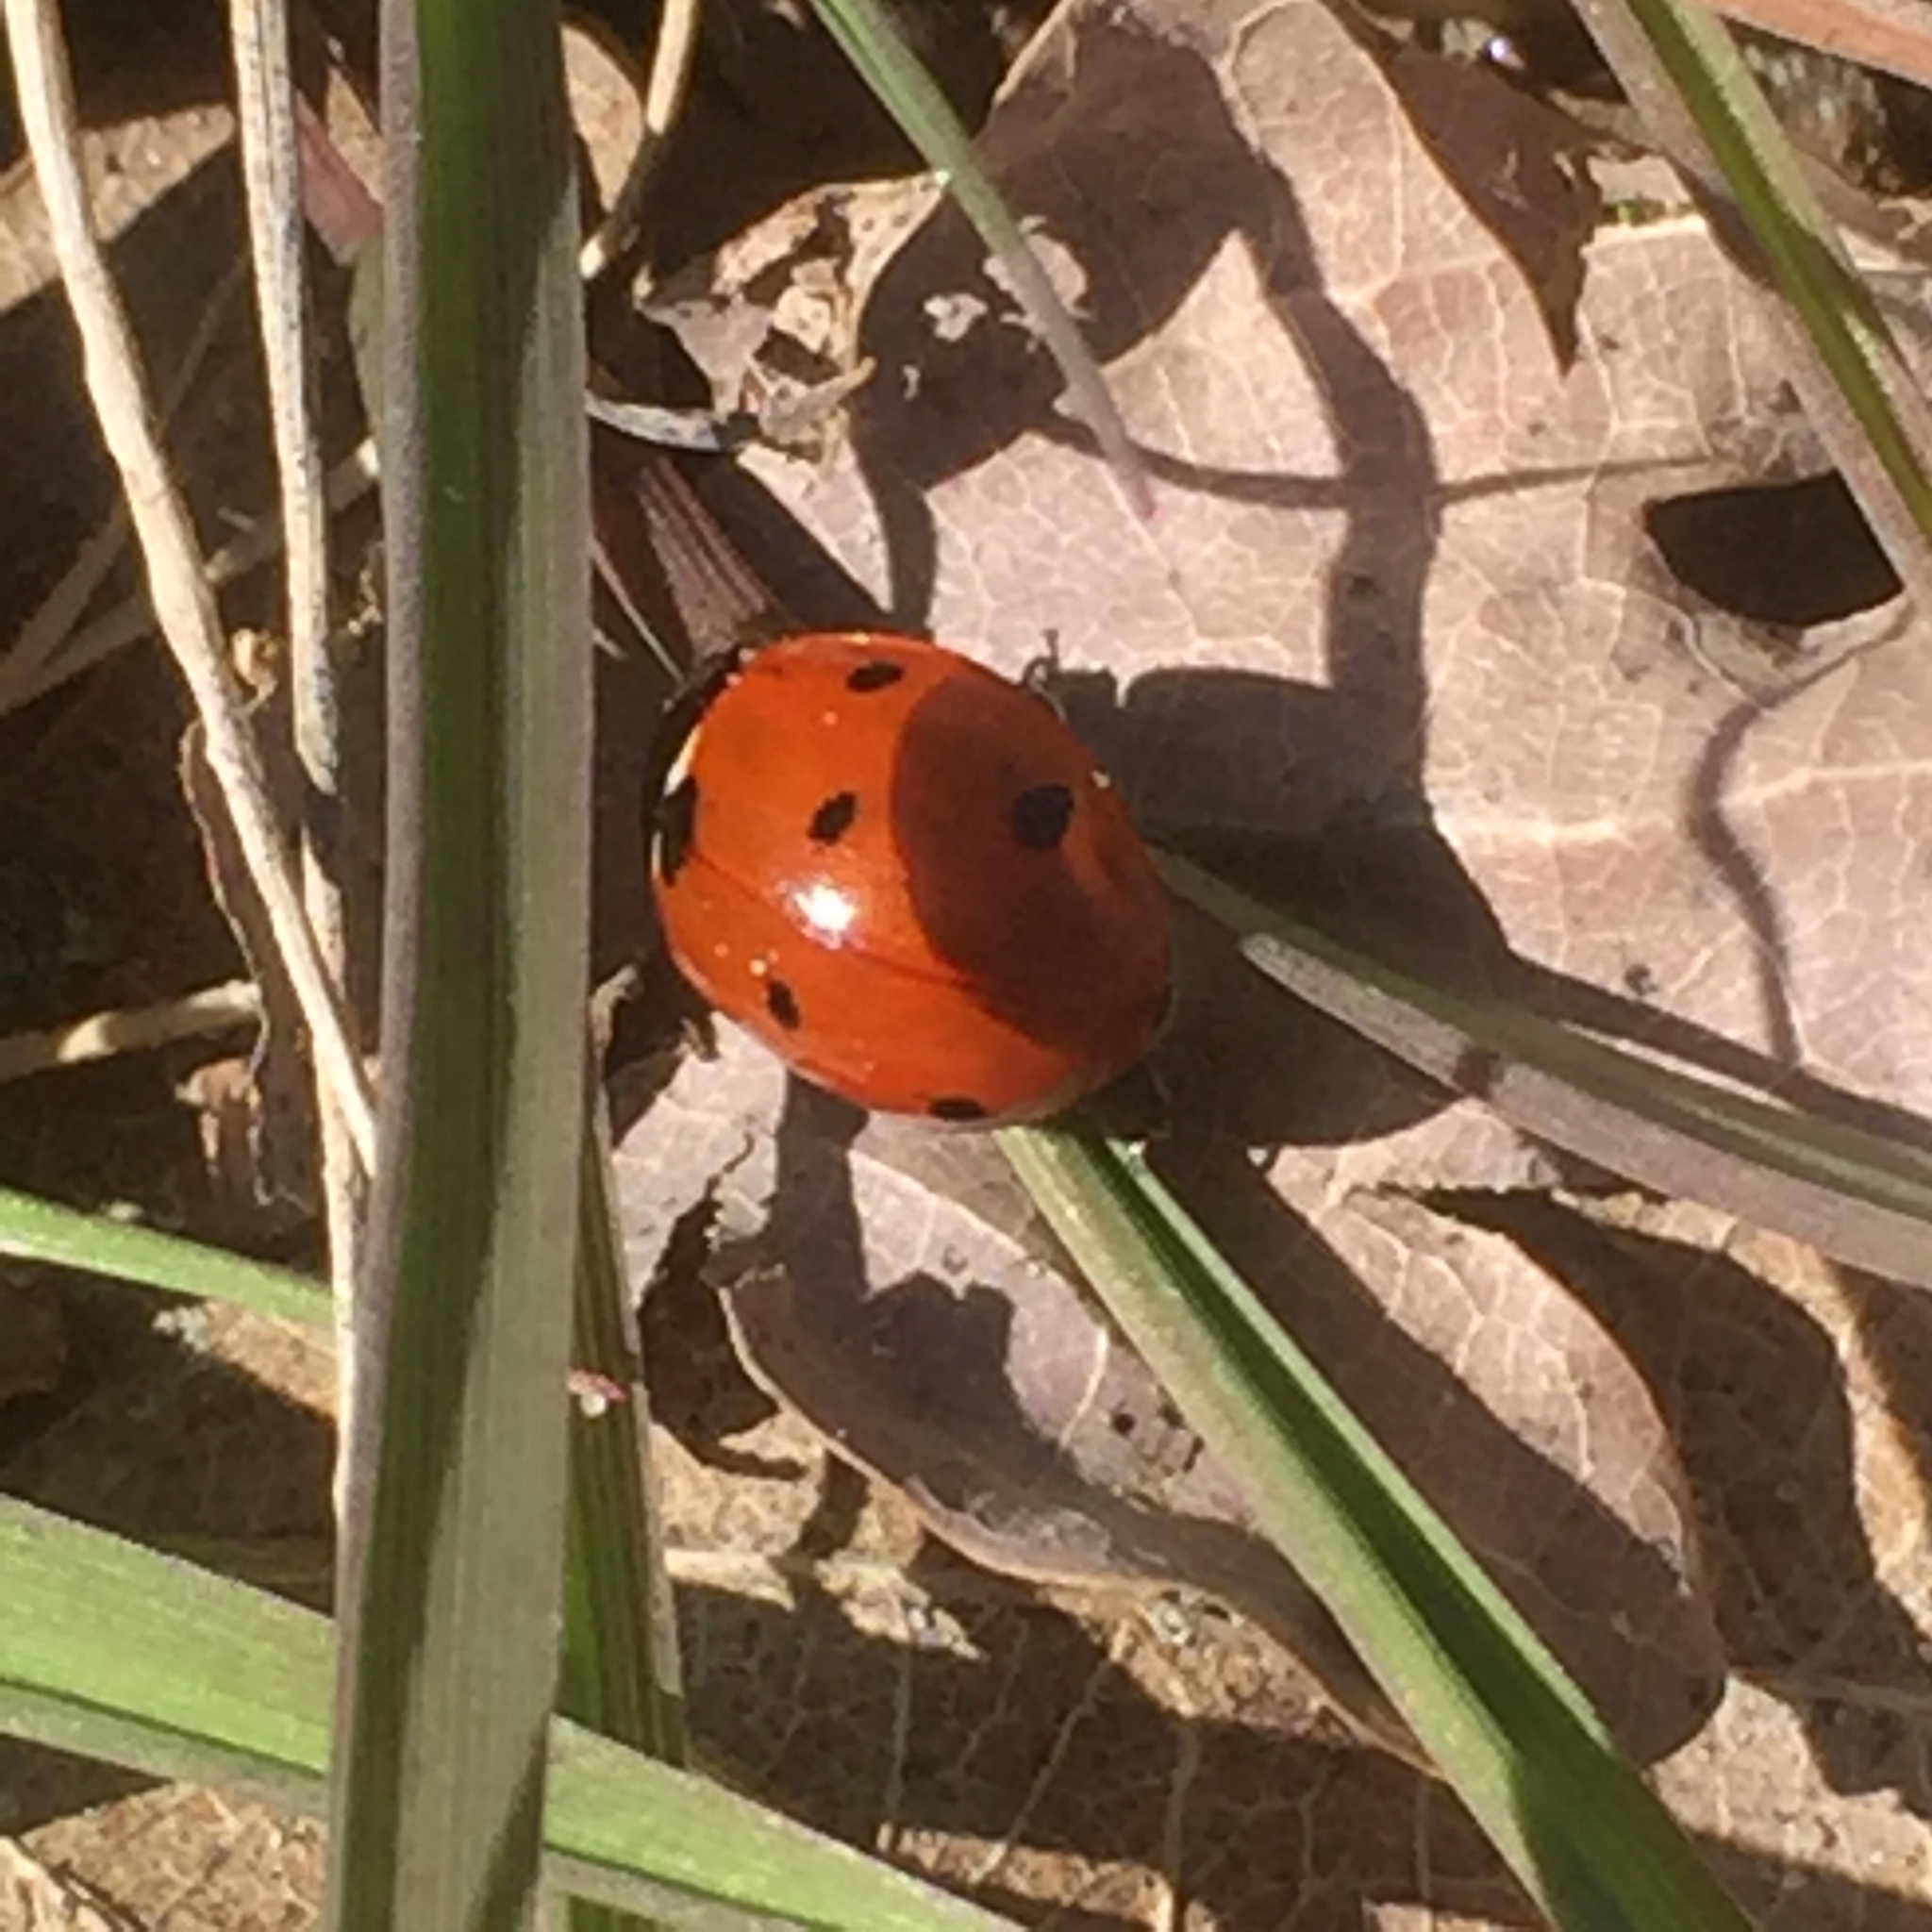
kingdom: Animalia
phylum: Arthropoda
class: Insecta
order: Coleoptera
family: Coccinellidae
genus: Coccinella
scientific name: Coccinella septempunctata
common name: Sevenspotted lady beetle
